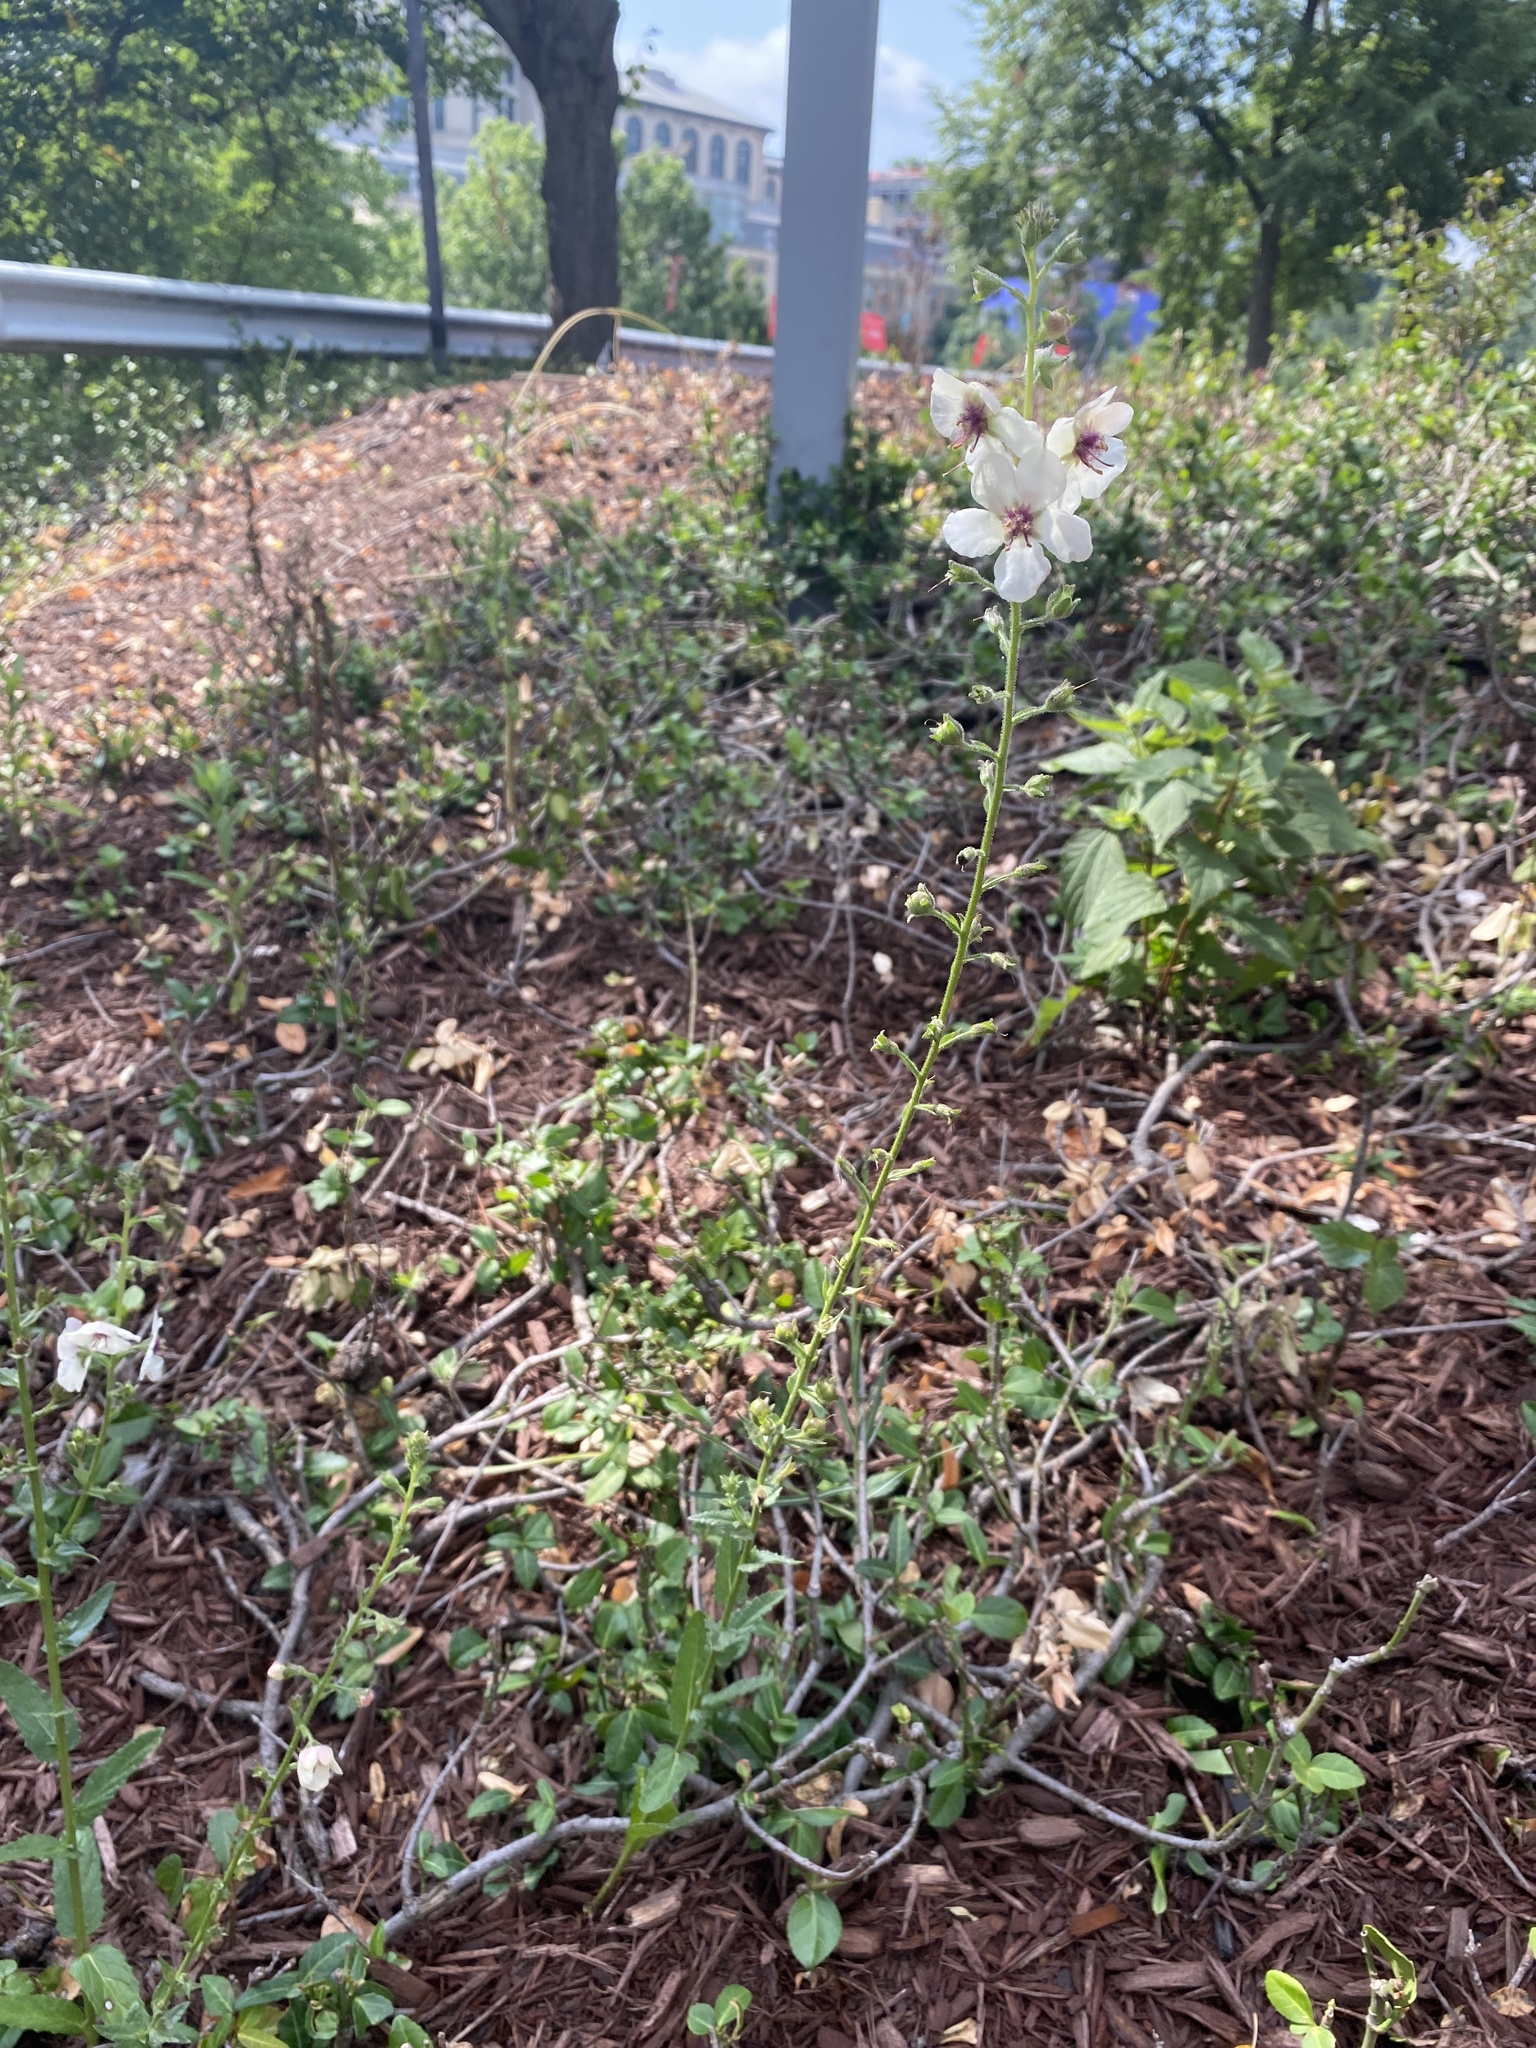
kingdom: Plantae
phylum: Tracheophyta
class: Magnoliopsida
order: Lamiales
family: Scrophulariaceae
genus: Verbascum
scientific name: Verbascum blattaria
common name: Moth mullein
